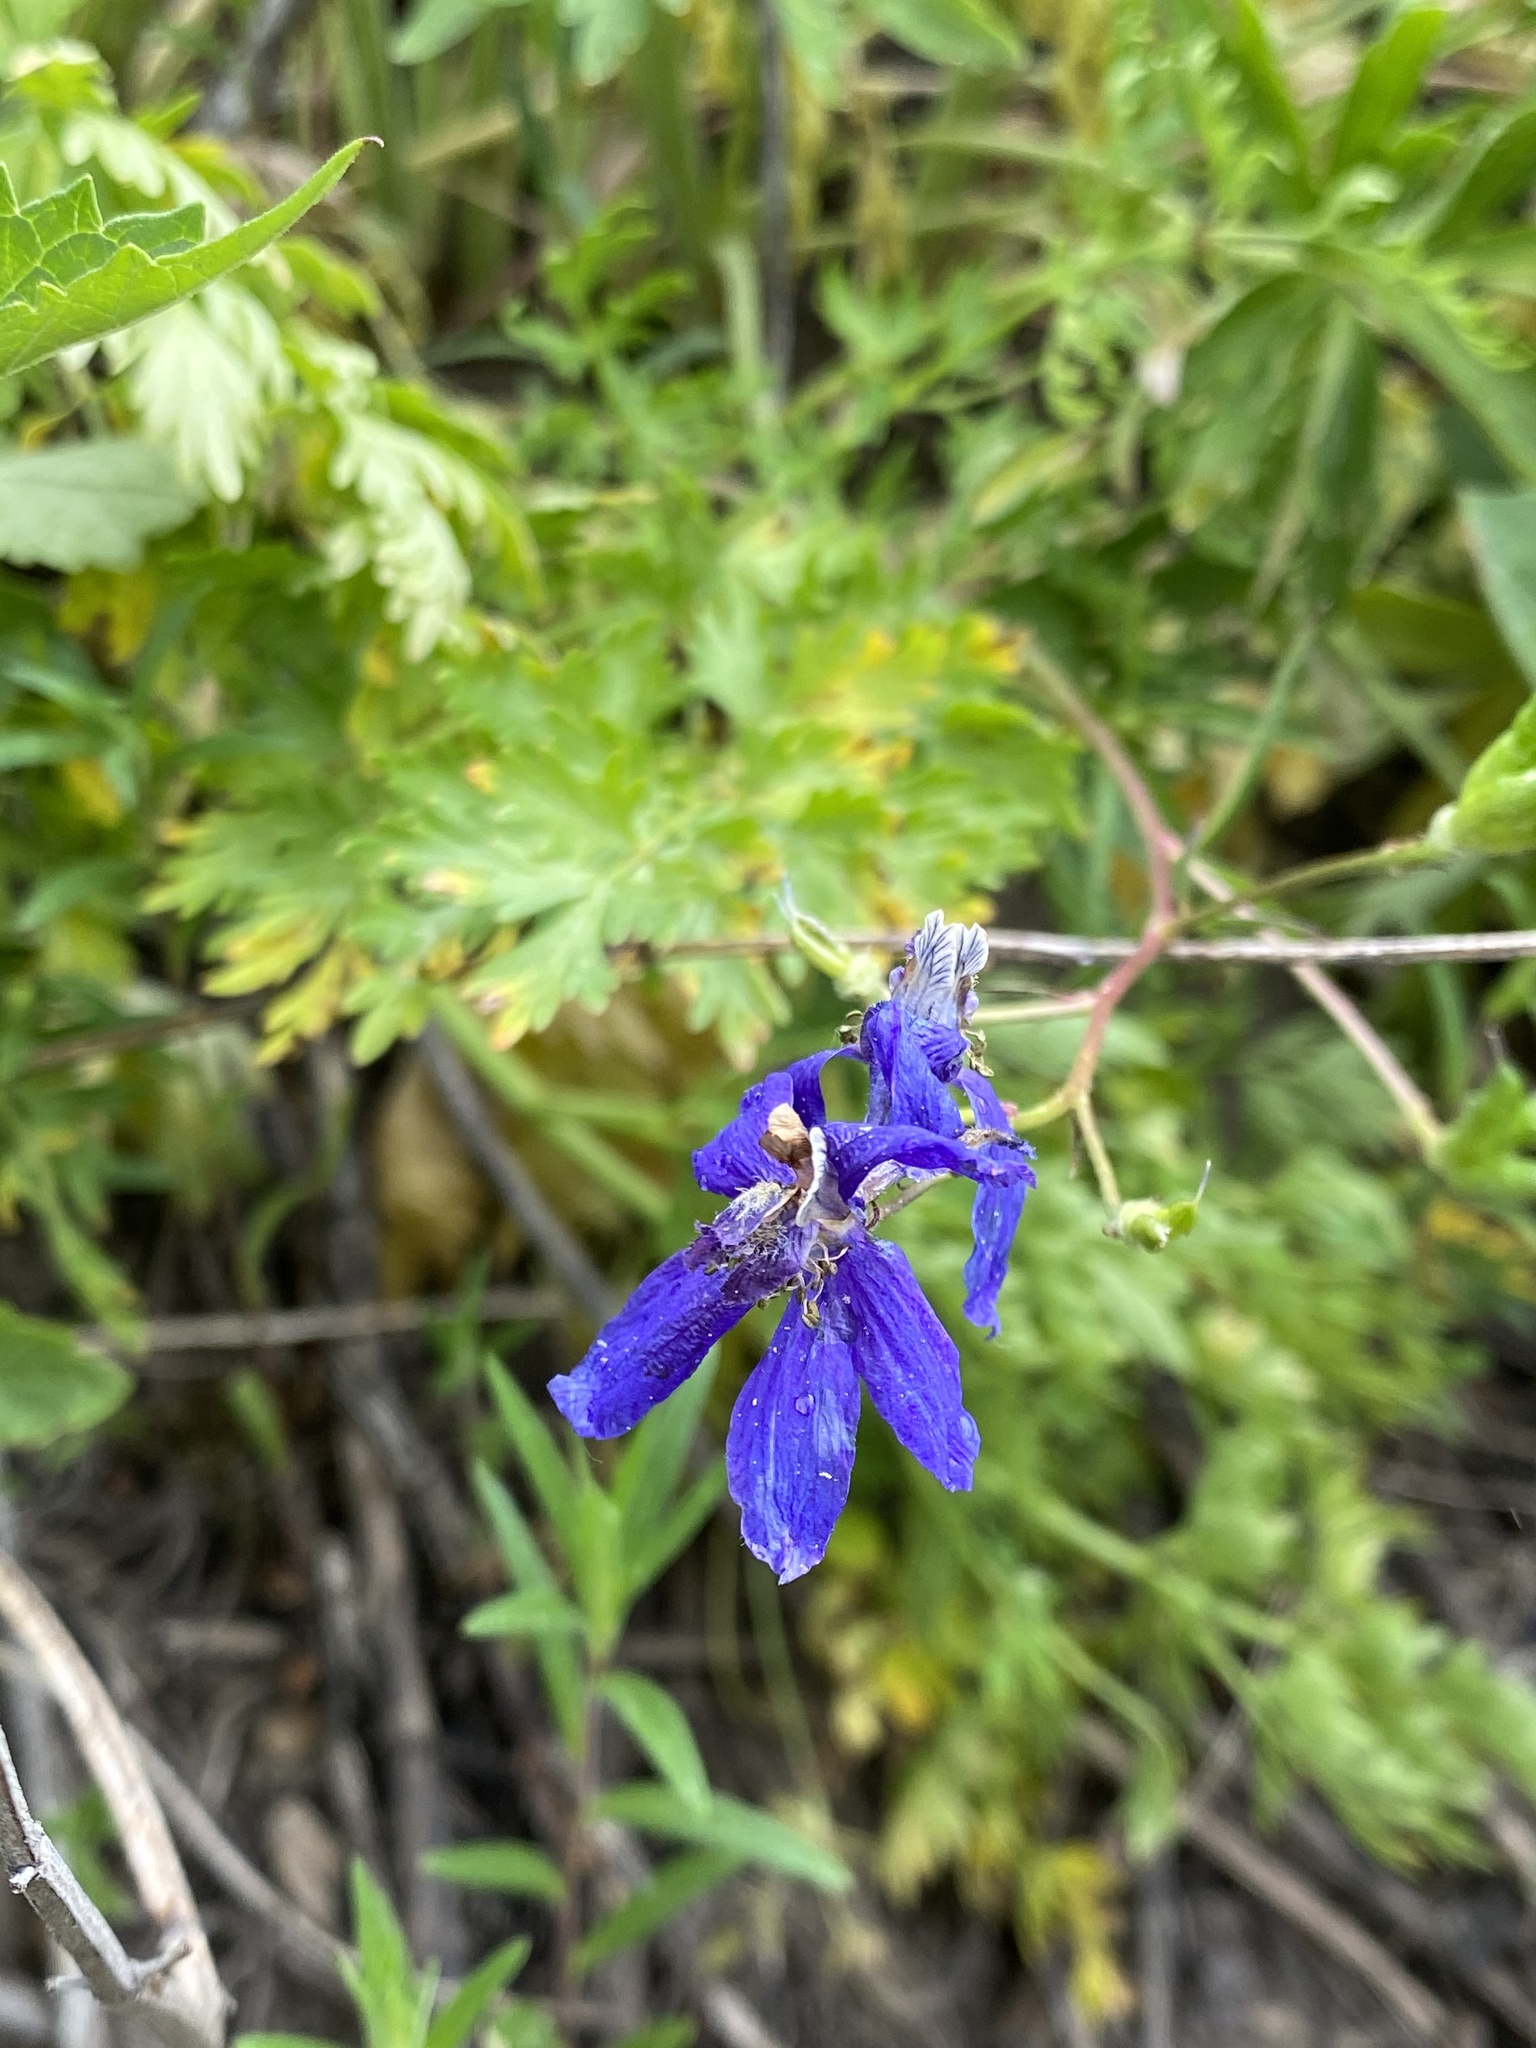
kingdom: Plantae
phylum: Tracheophyta
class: Magnoliopsida
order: Ranunculales
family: Ranunculaceae
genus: Delphinium
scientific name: Delphinium nuttallianum
